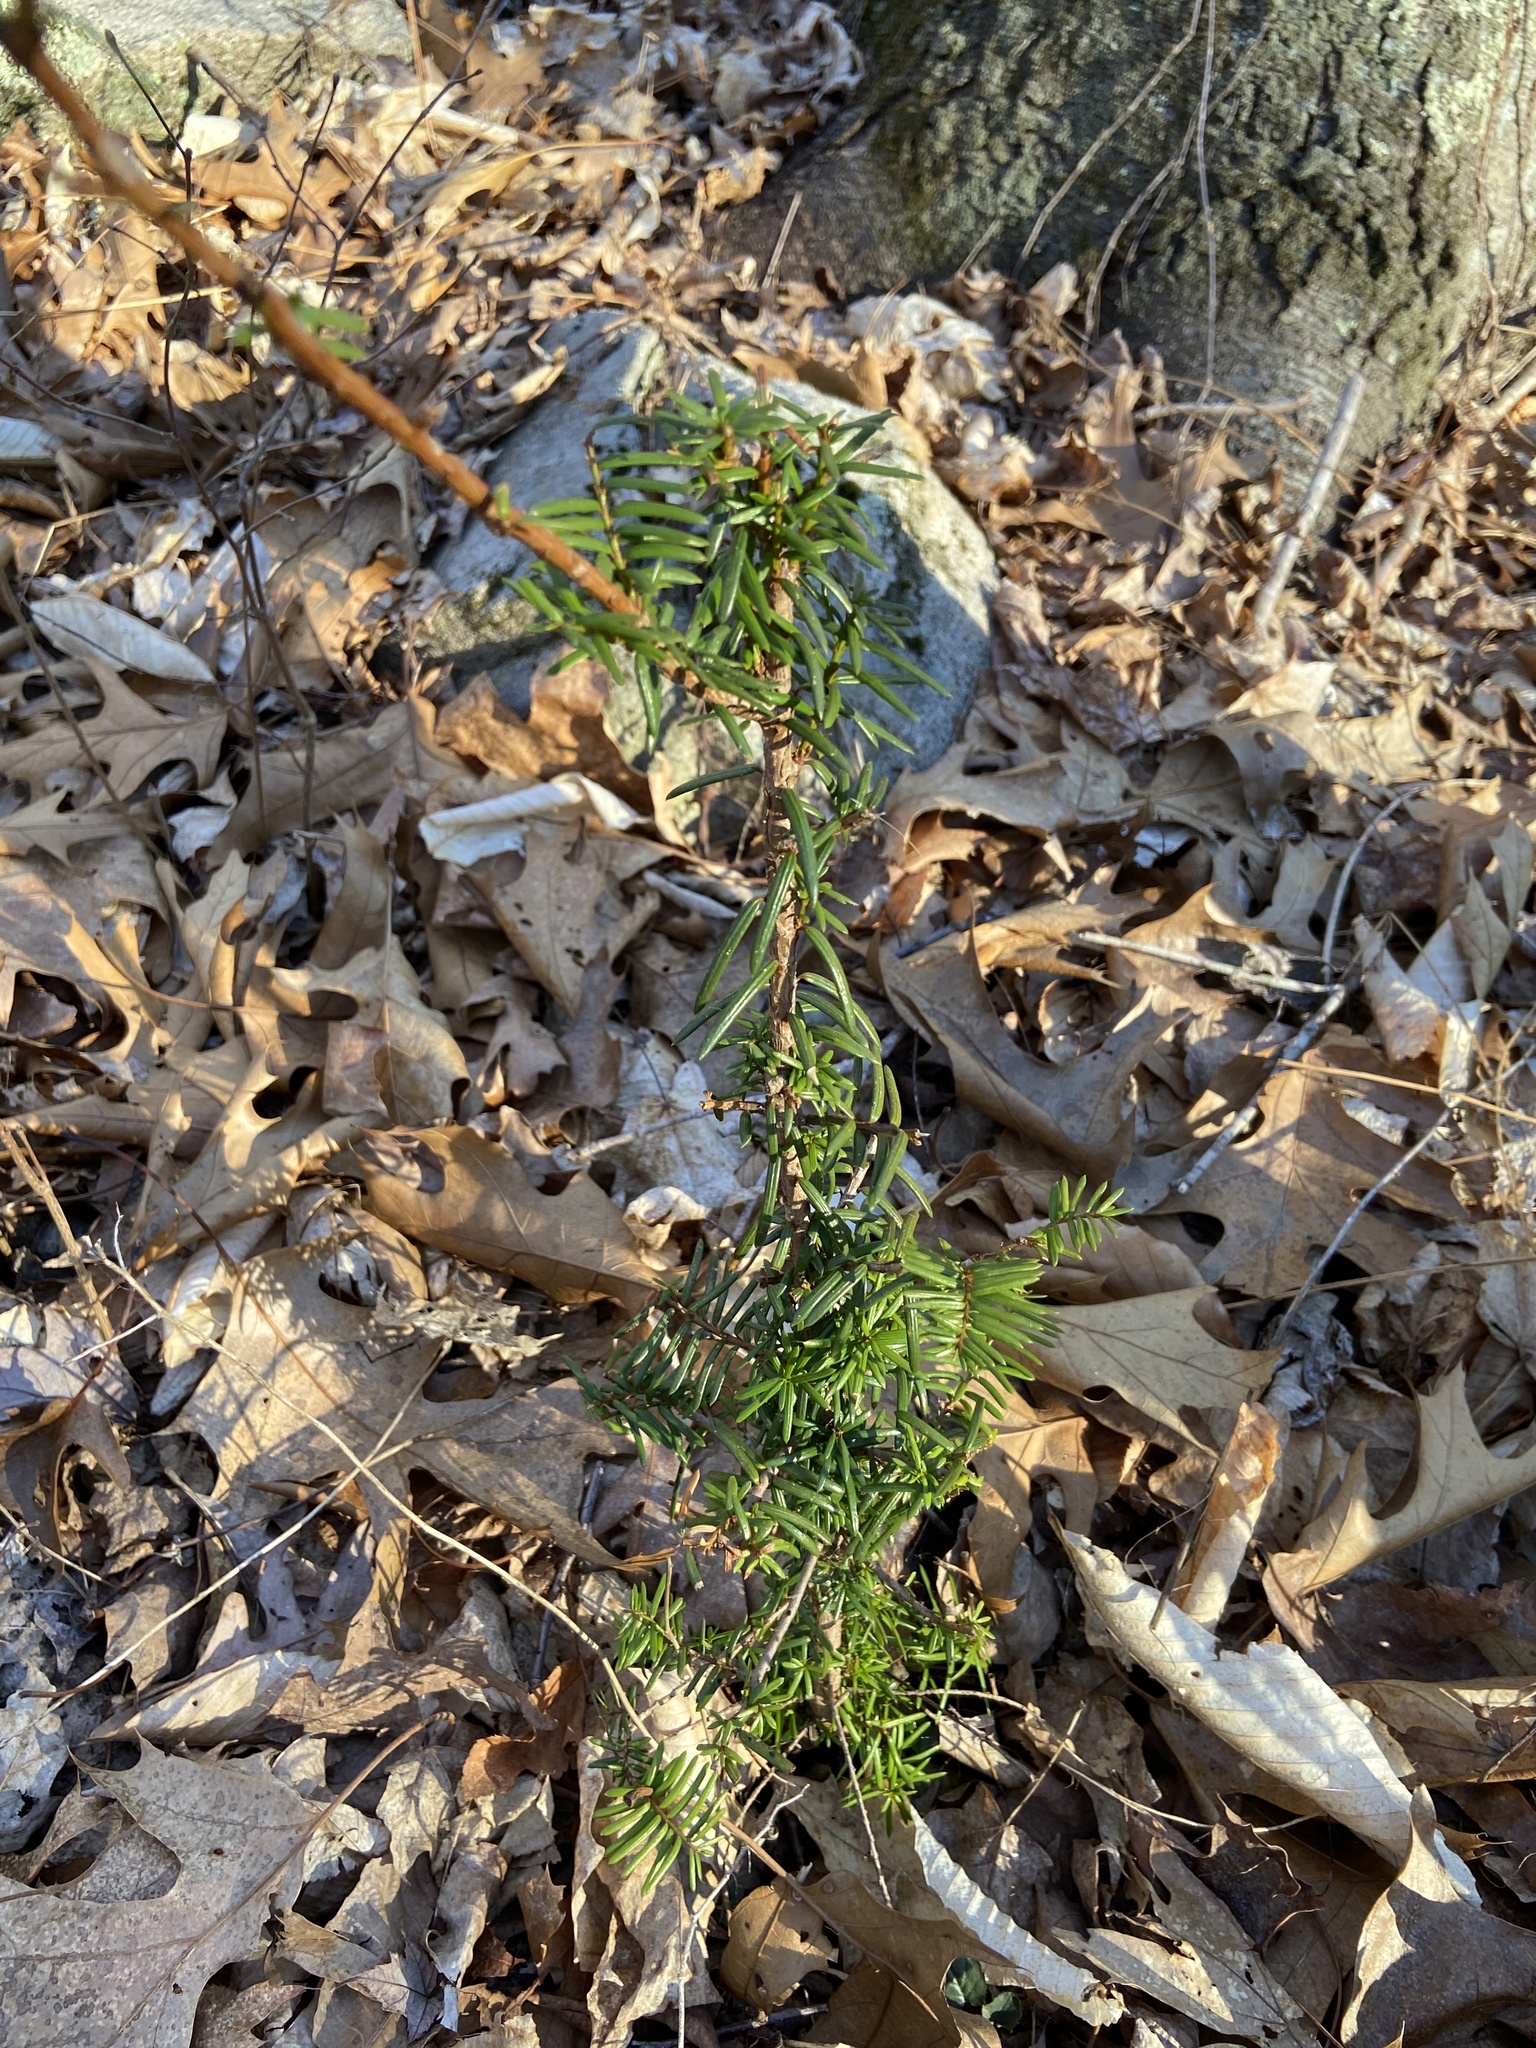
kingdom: Plantae
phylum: Tracheophyta
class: Pinopsida
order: Pinales
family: Taxaceae
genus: Taxus
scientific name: Taxus canadensis
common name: American yew
